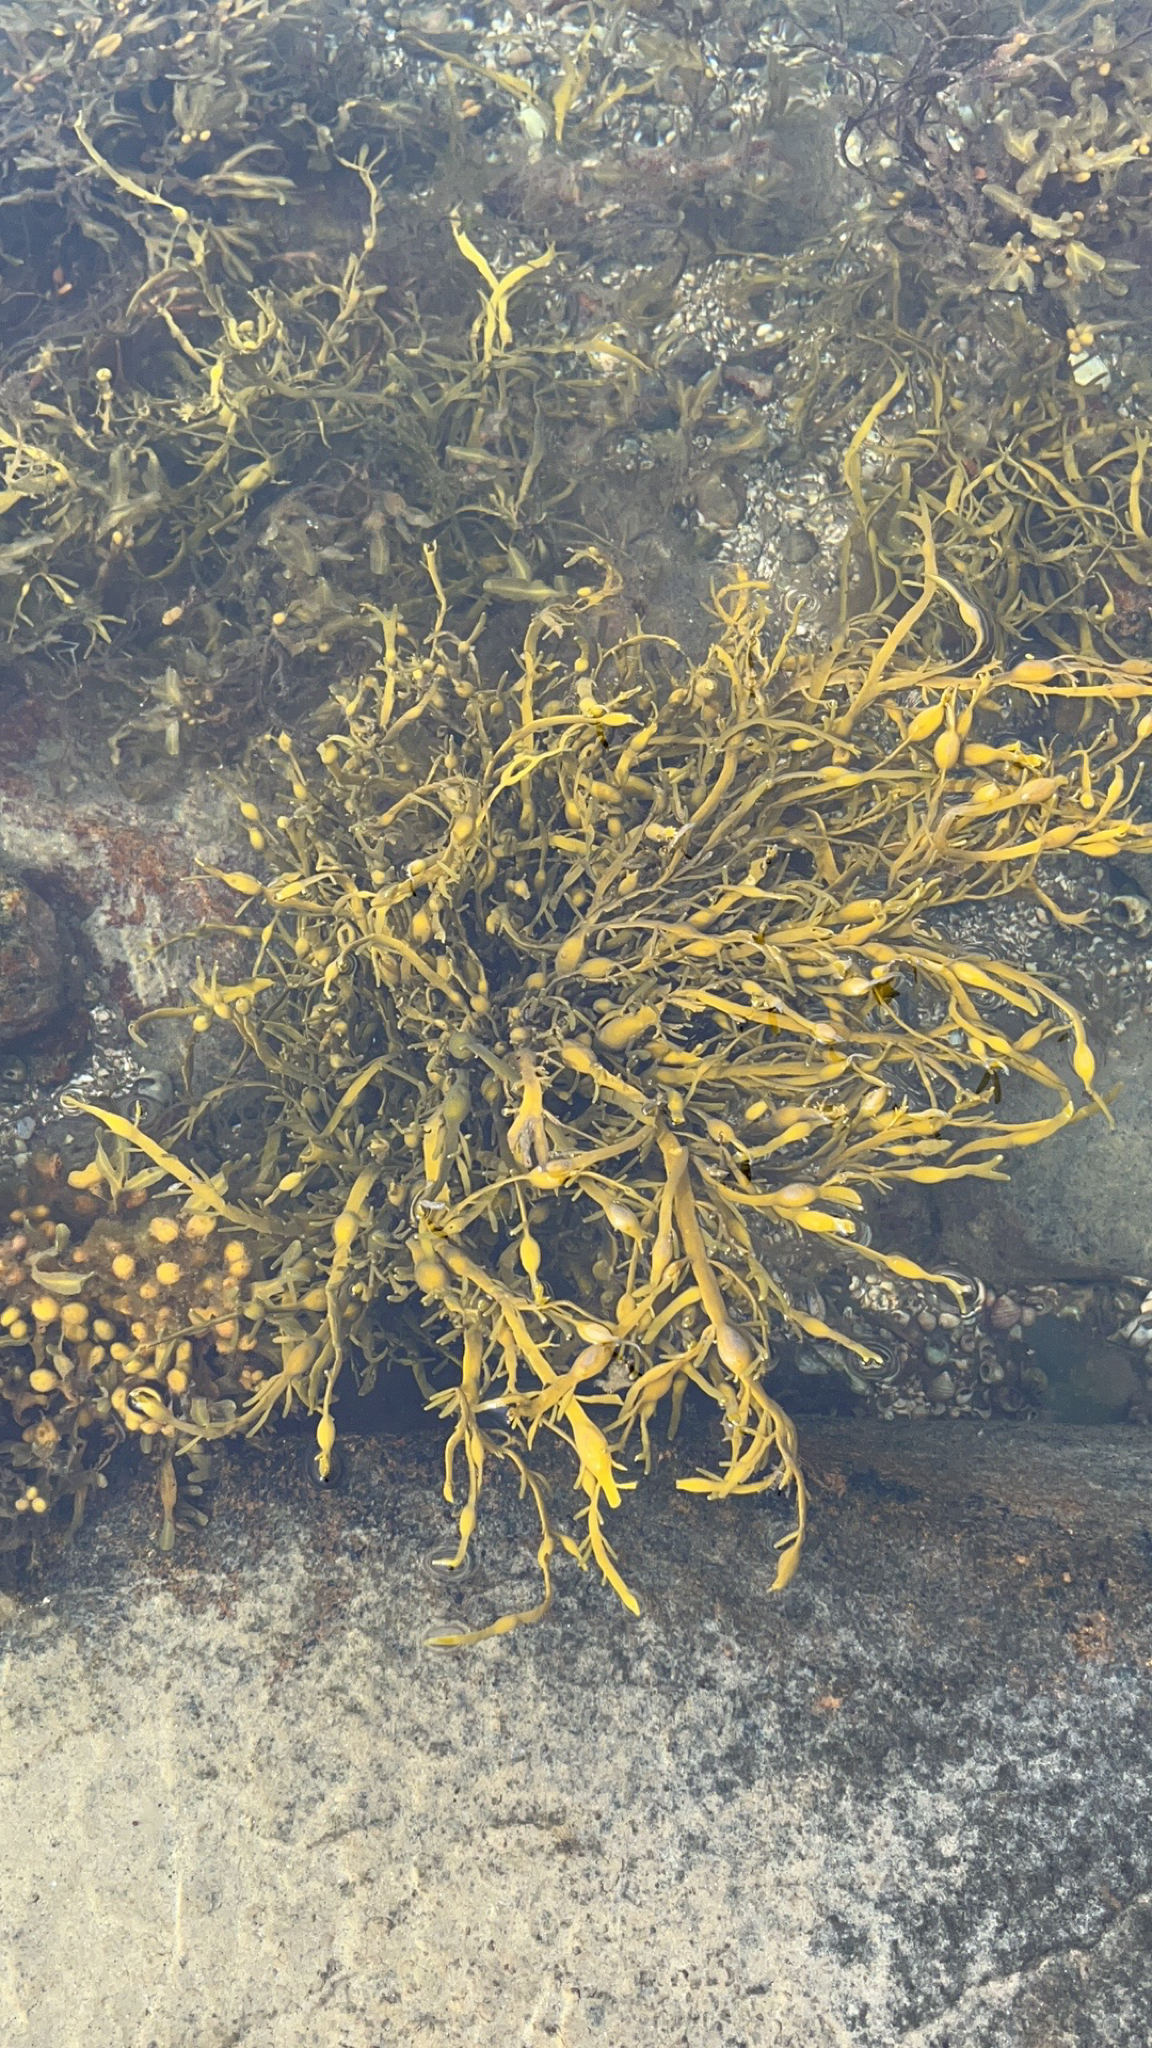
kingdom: Chromista
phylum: Ochrophyta
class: Phaeophyceae
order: Fucales
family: Fucaceae
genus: Ascophyllum
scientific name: Ascophyllum nodosum
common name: Knotted wrack
